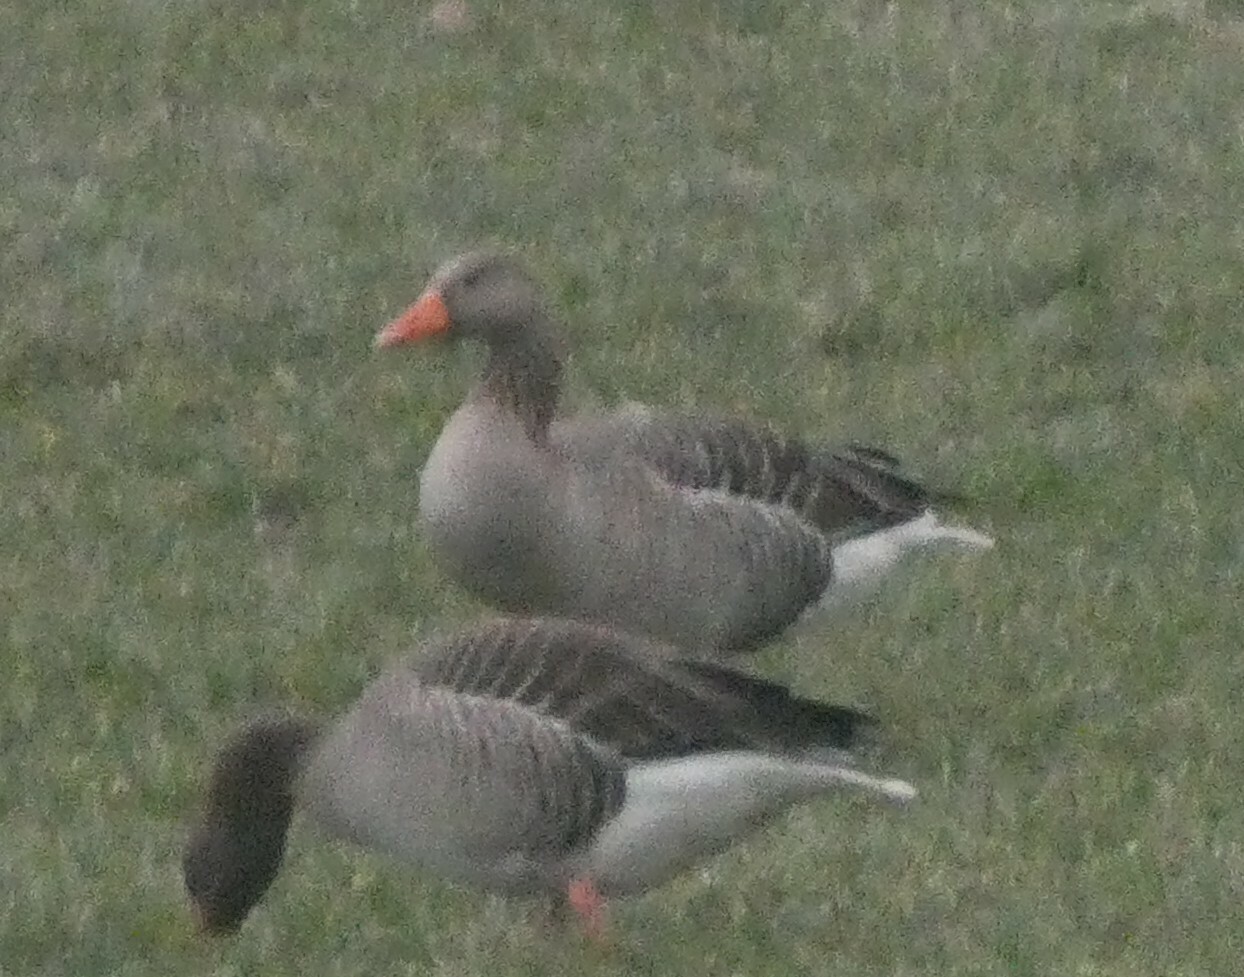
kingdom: Animalia
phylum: Chordata
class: Aves
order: Anseriformes
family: Anatidae
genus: Anser
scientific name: Anser anser
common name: Greylag goose
